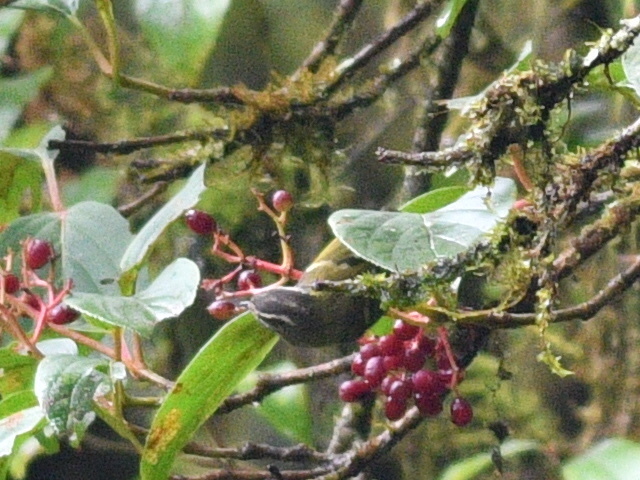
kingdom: Animalia
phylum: Chordata
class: Aves
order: Passeriformes
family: Phylloscopidae
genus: Phylloscopus
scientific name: Phylloscopus maculipennis
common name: Ashy-throated warbler
